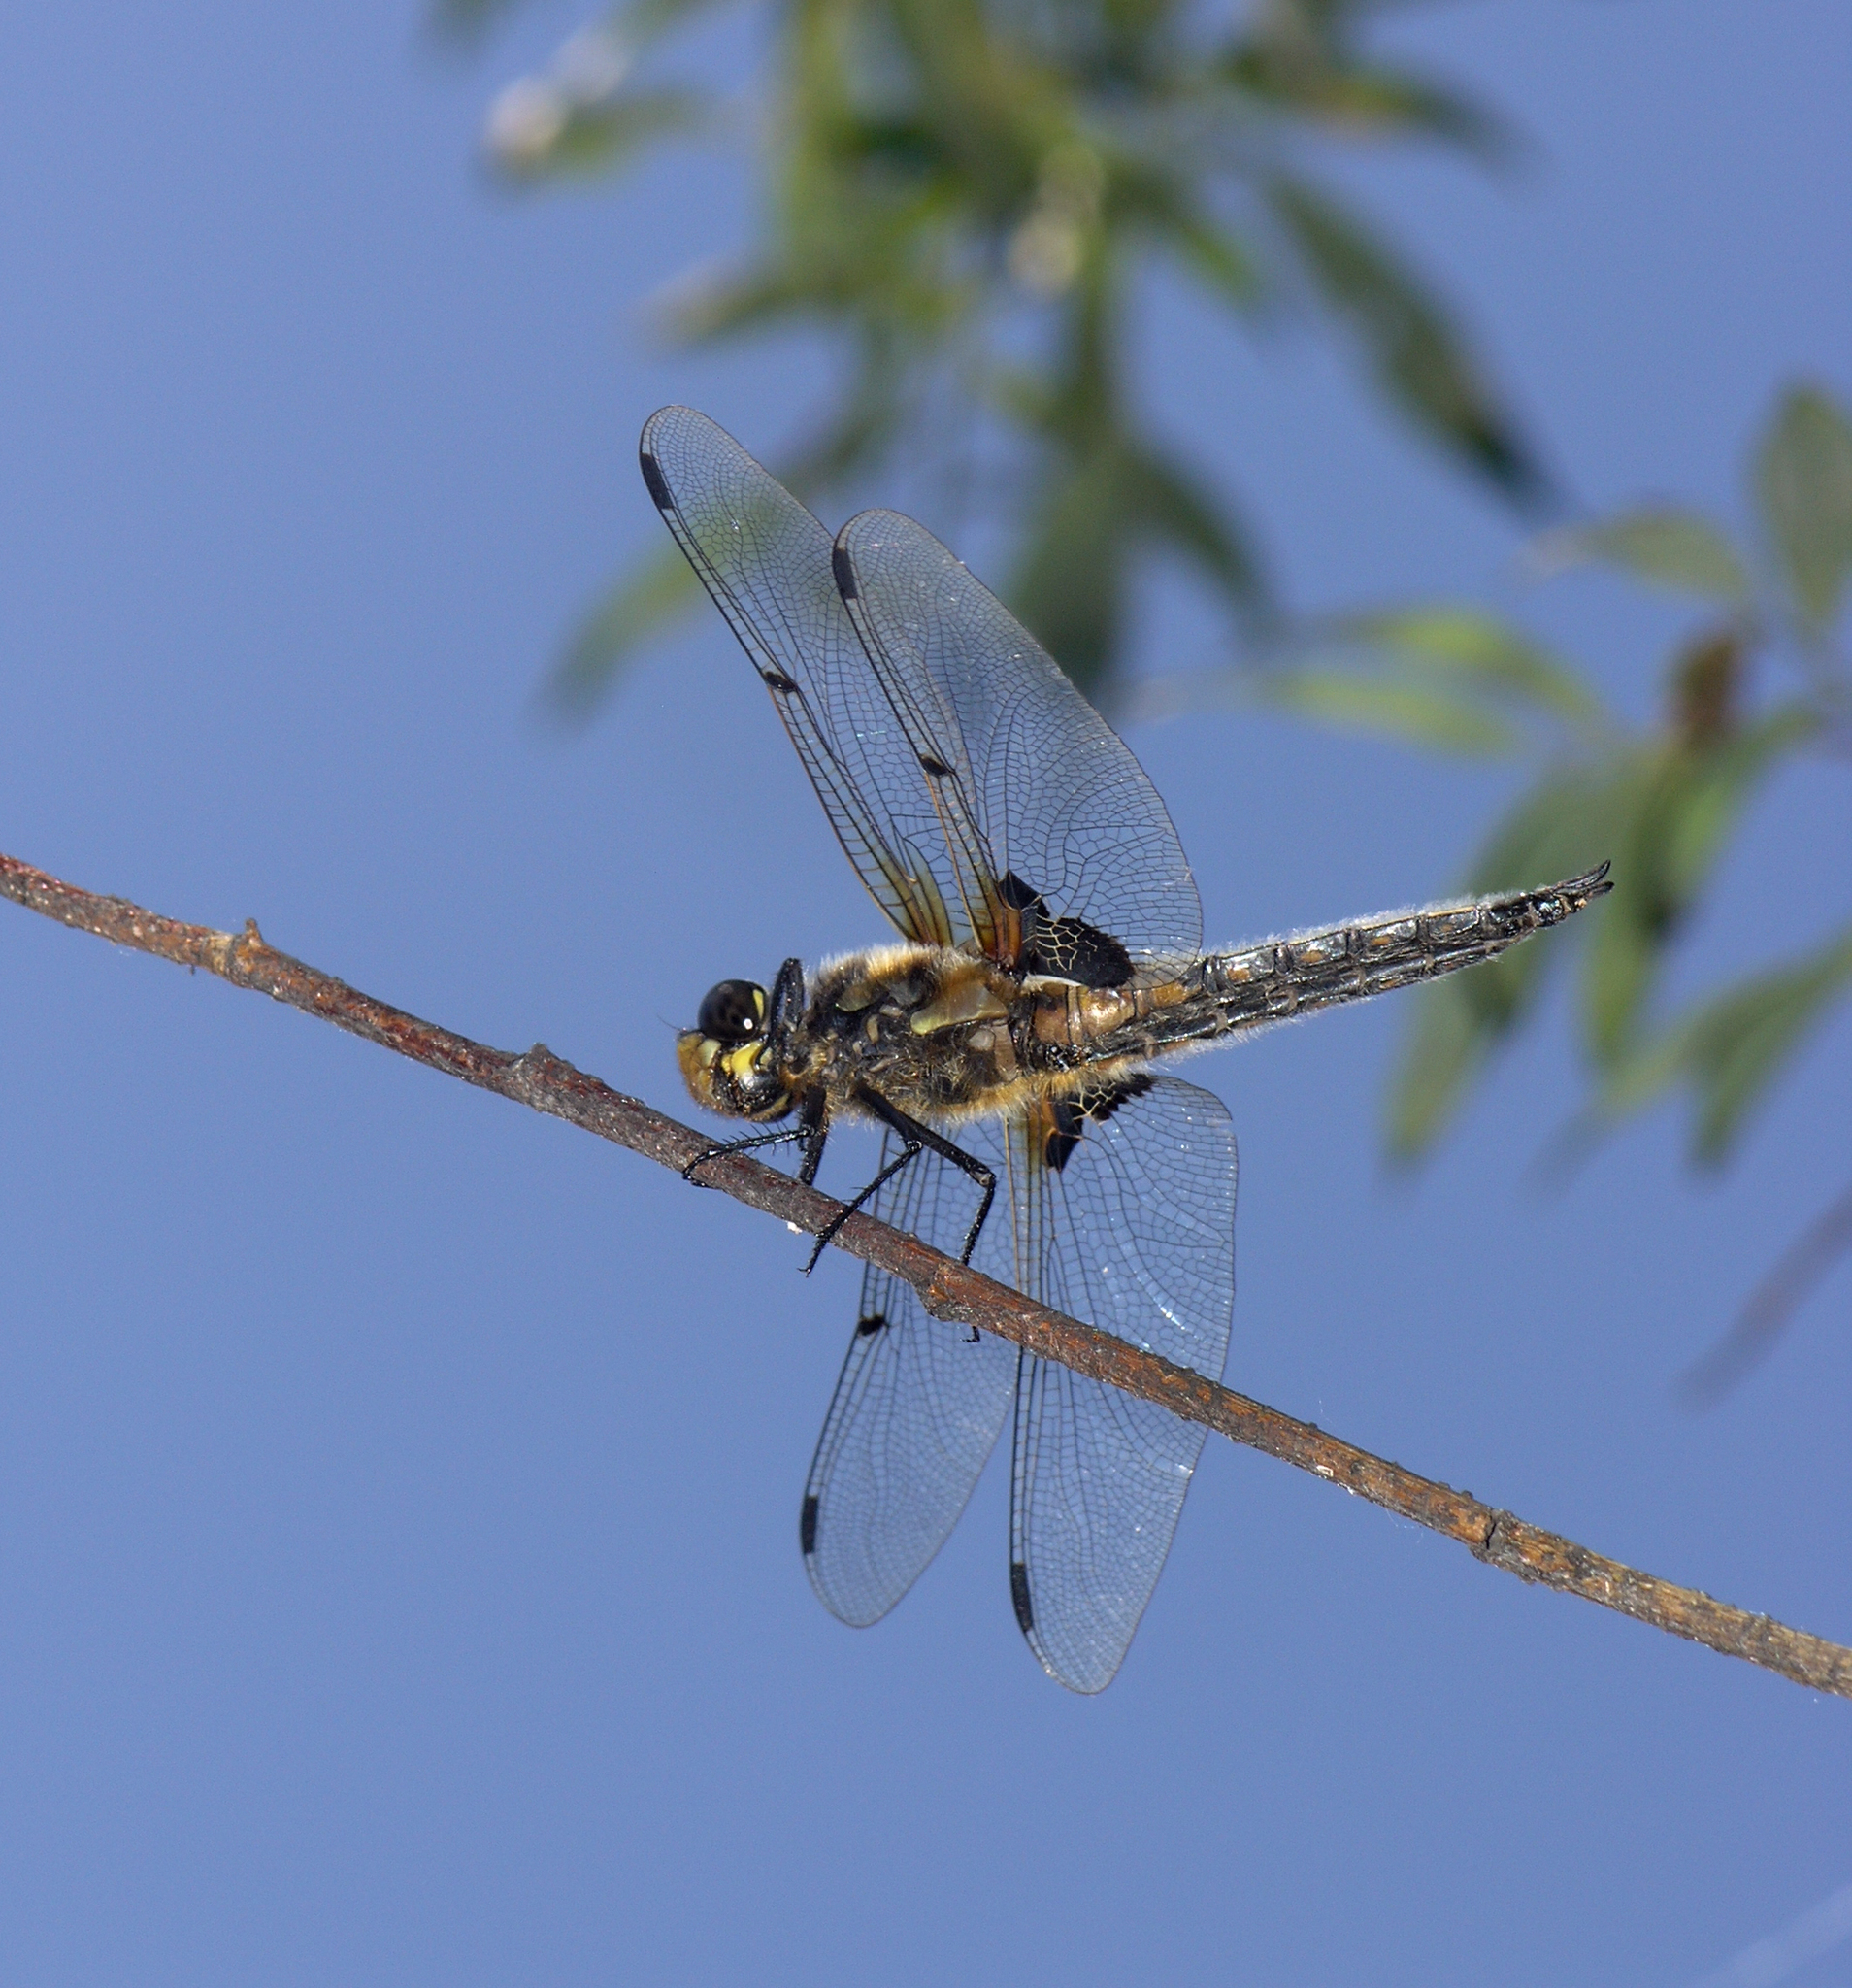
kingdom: Animalia
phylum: Arthropoda
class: Insecta
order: Odonata
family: Libellulidae
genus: Libellula
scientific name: Libellula quadrimaculata
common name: Four-spotted chaser
